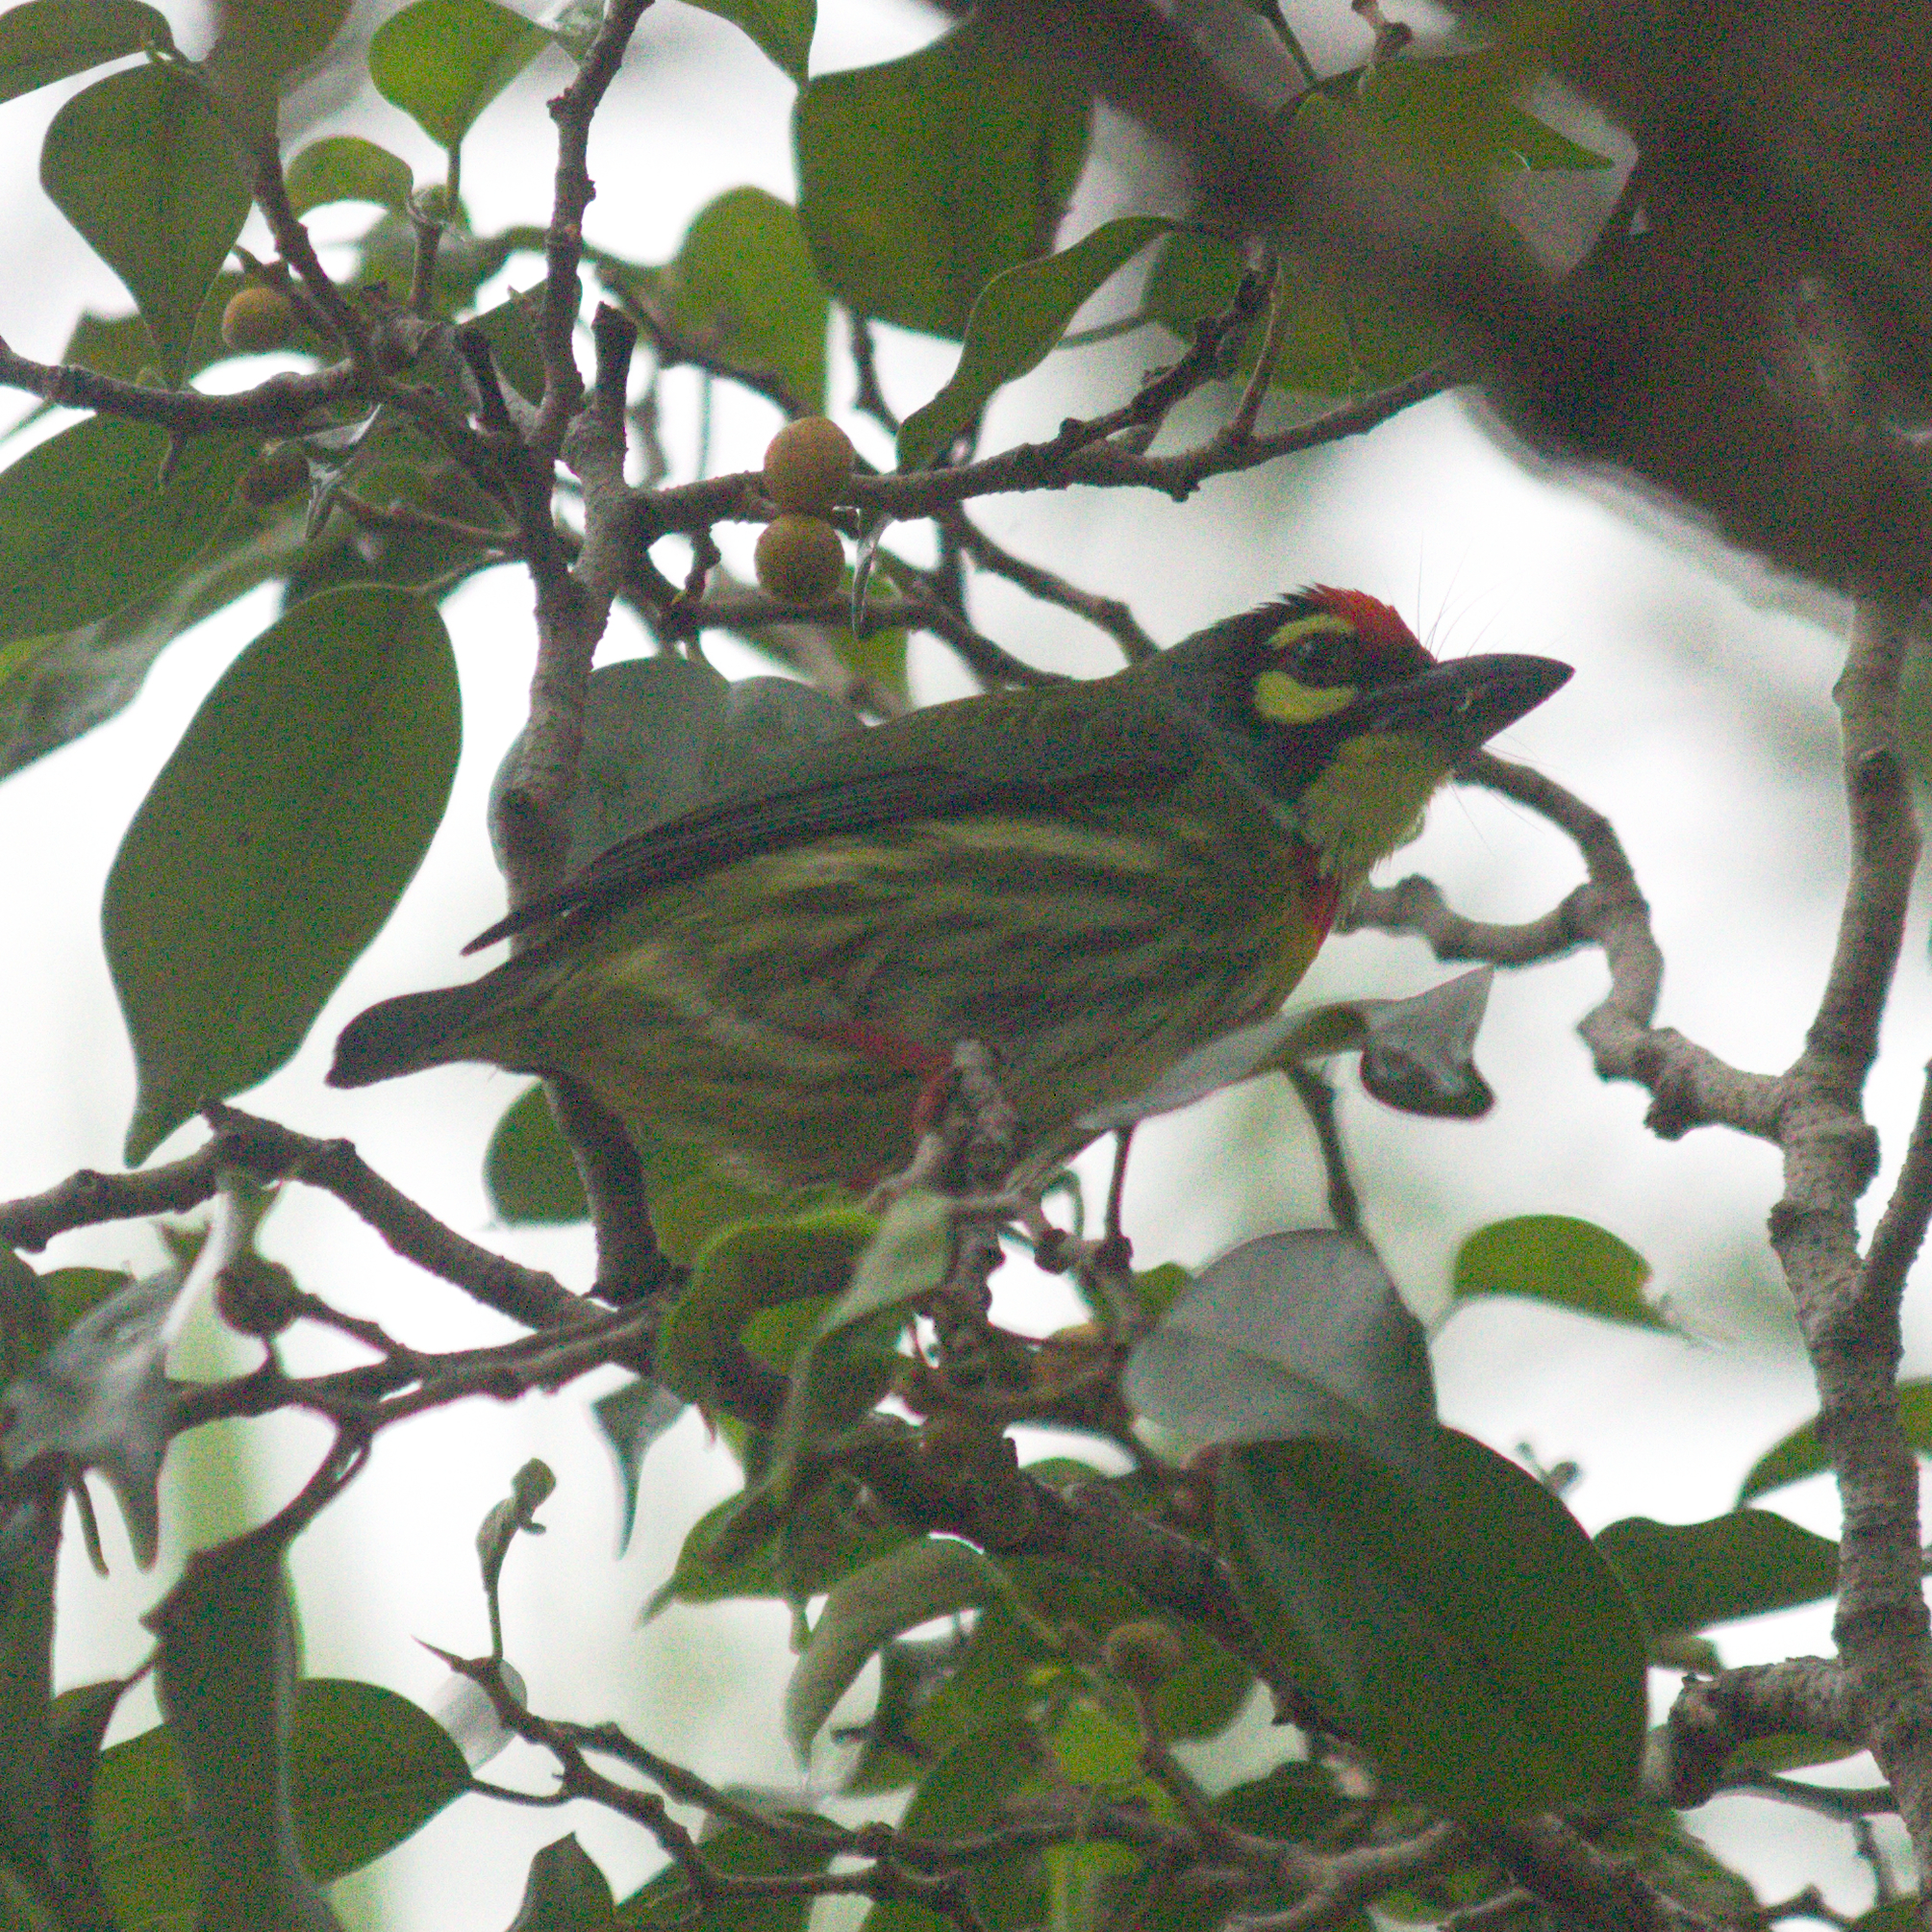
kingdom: Animalia
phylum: Chordata
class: Aves
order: Piciformes
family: Megalaimidae
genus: Psilopogon
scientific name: Psilopogon haemacephalus
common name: Coppersmith barbet
